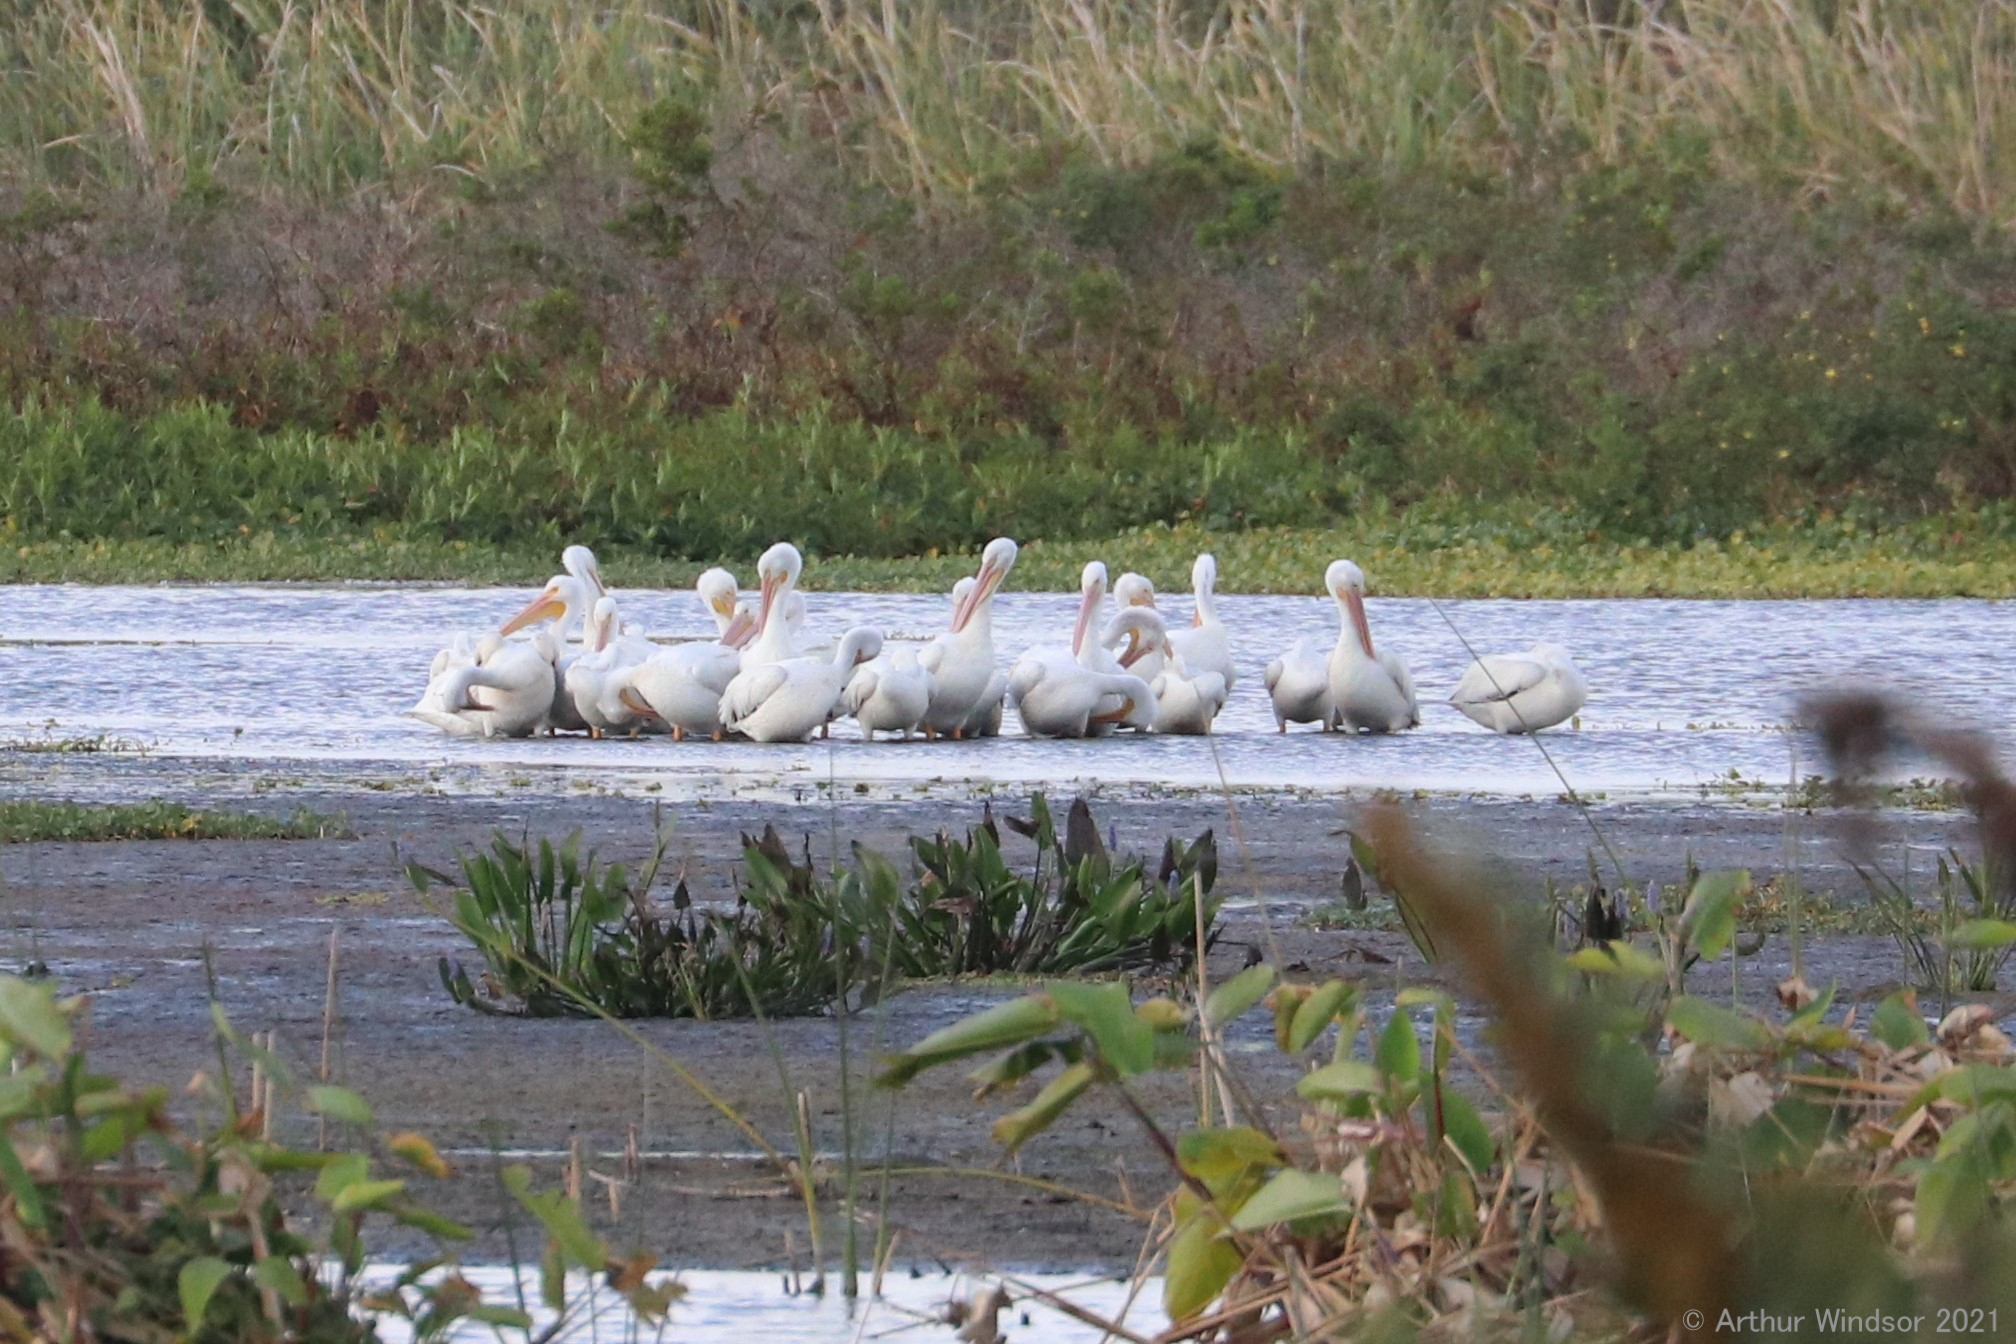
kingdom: Animalia
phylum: Chordata
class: Aves
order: Pelecaniformes
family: Pelecanidae
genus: Pelecanus
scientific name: Pelecanus erythrorhynchos
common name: American white pelican
